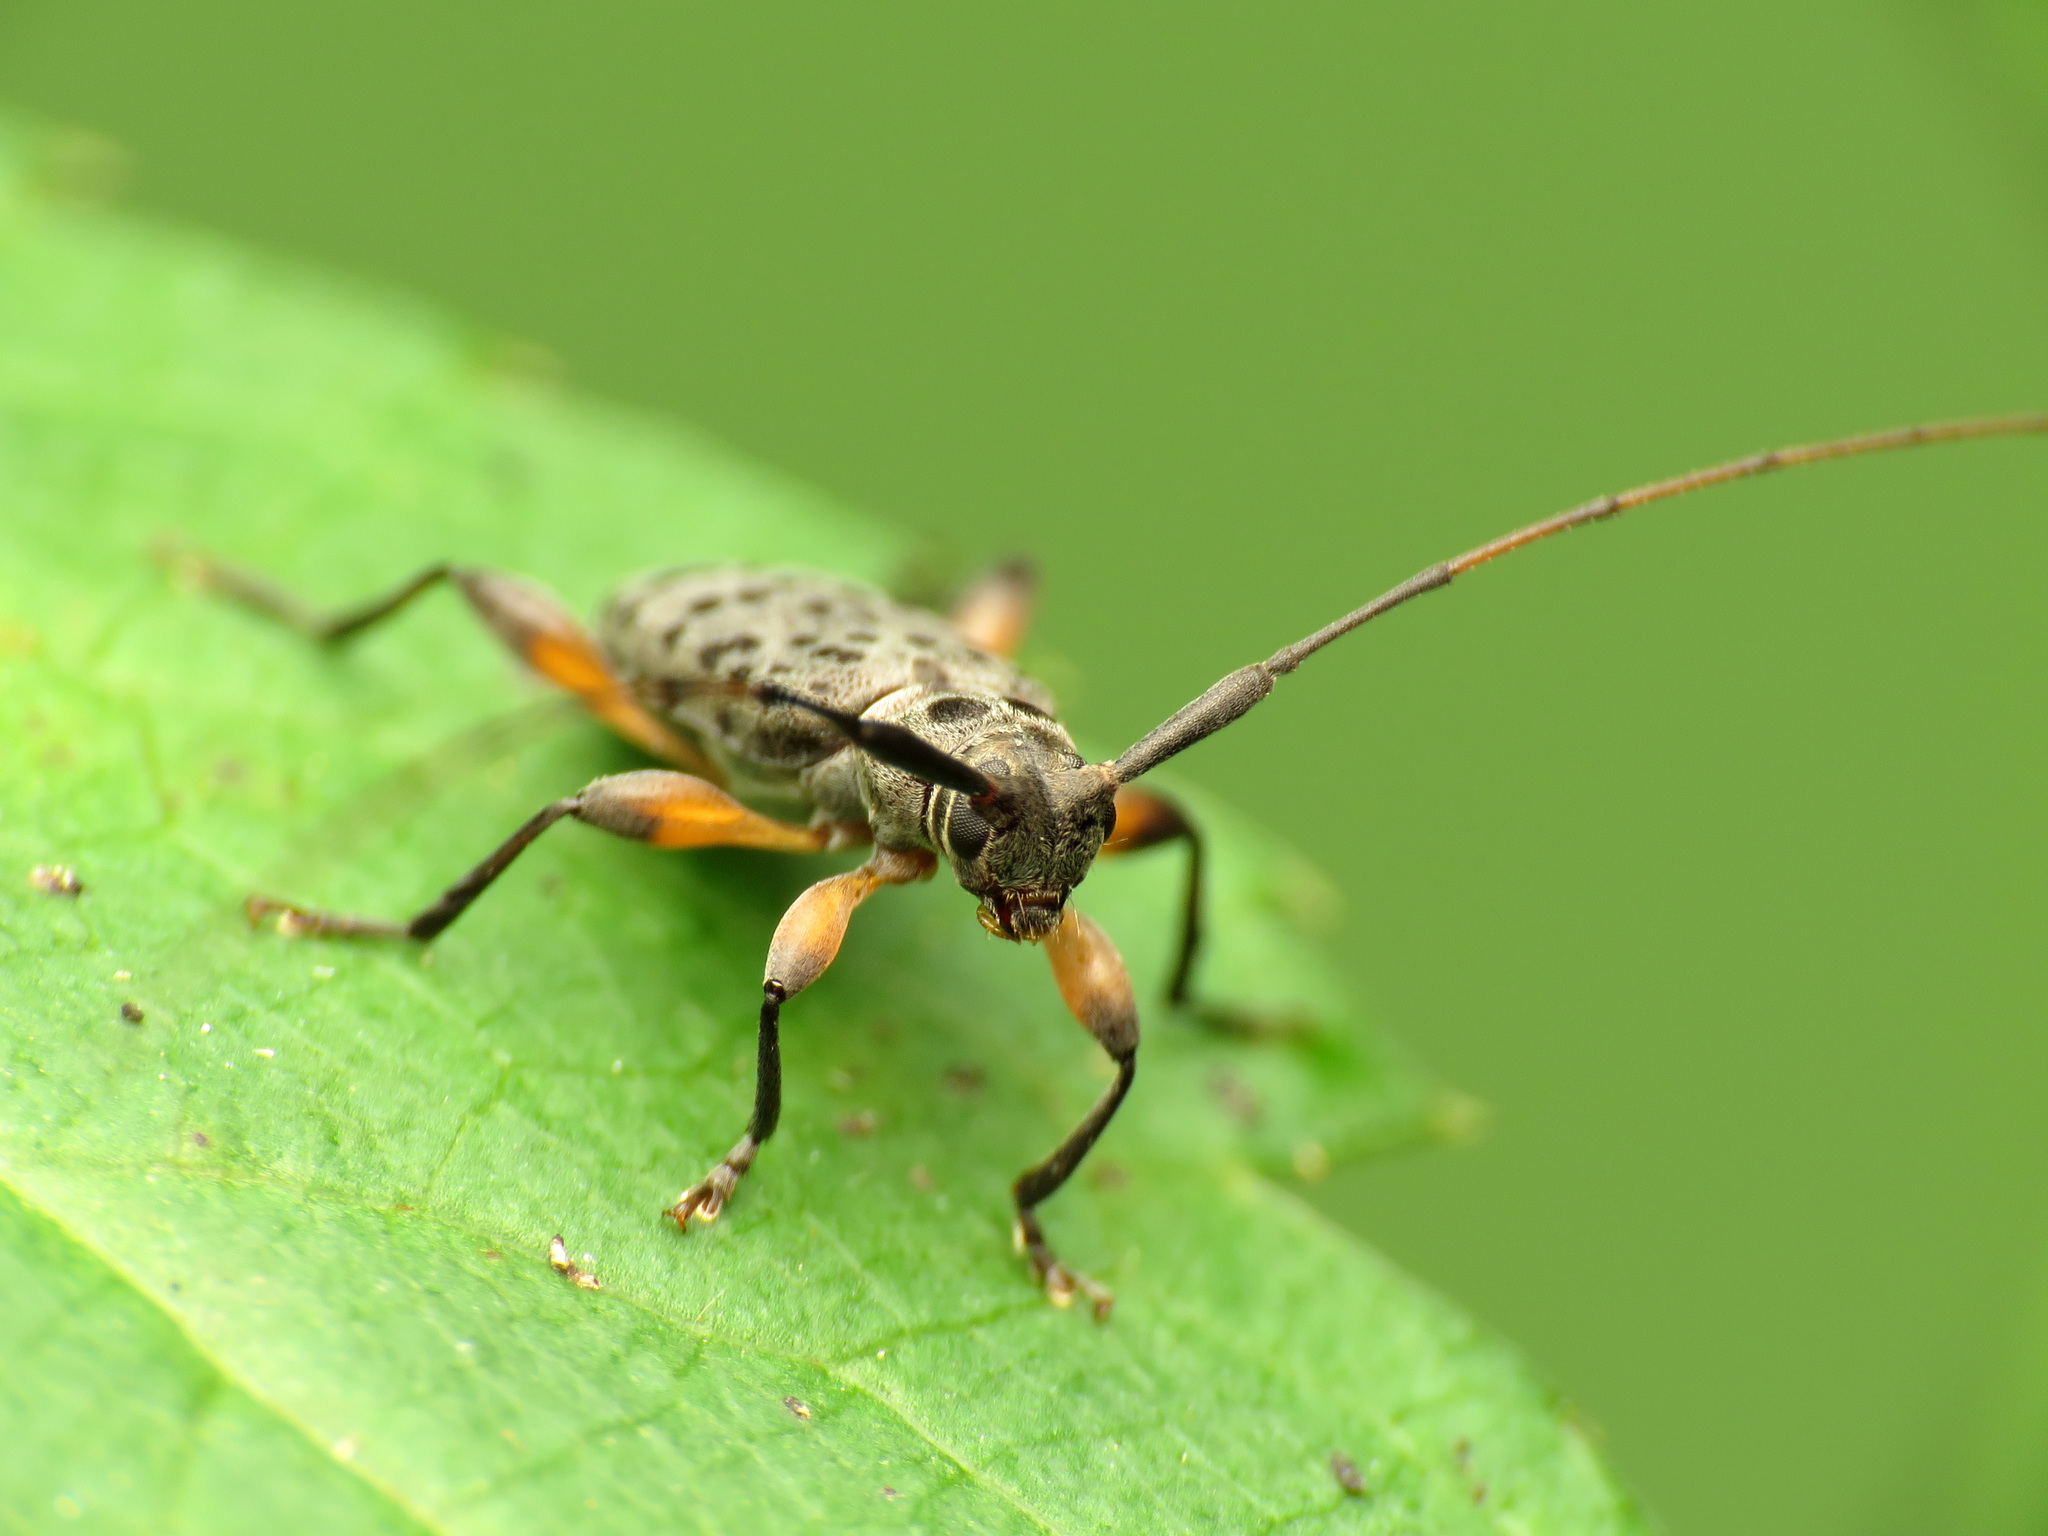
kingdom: Animalia
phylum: Arthropoda
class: Insecta
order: Coleoptera
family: Cerambycidae
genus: Hyperplatys
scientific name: Hyperplatys aspersa
